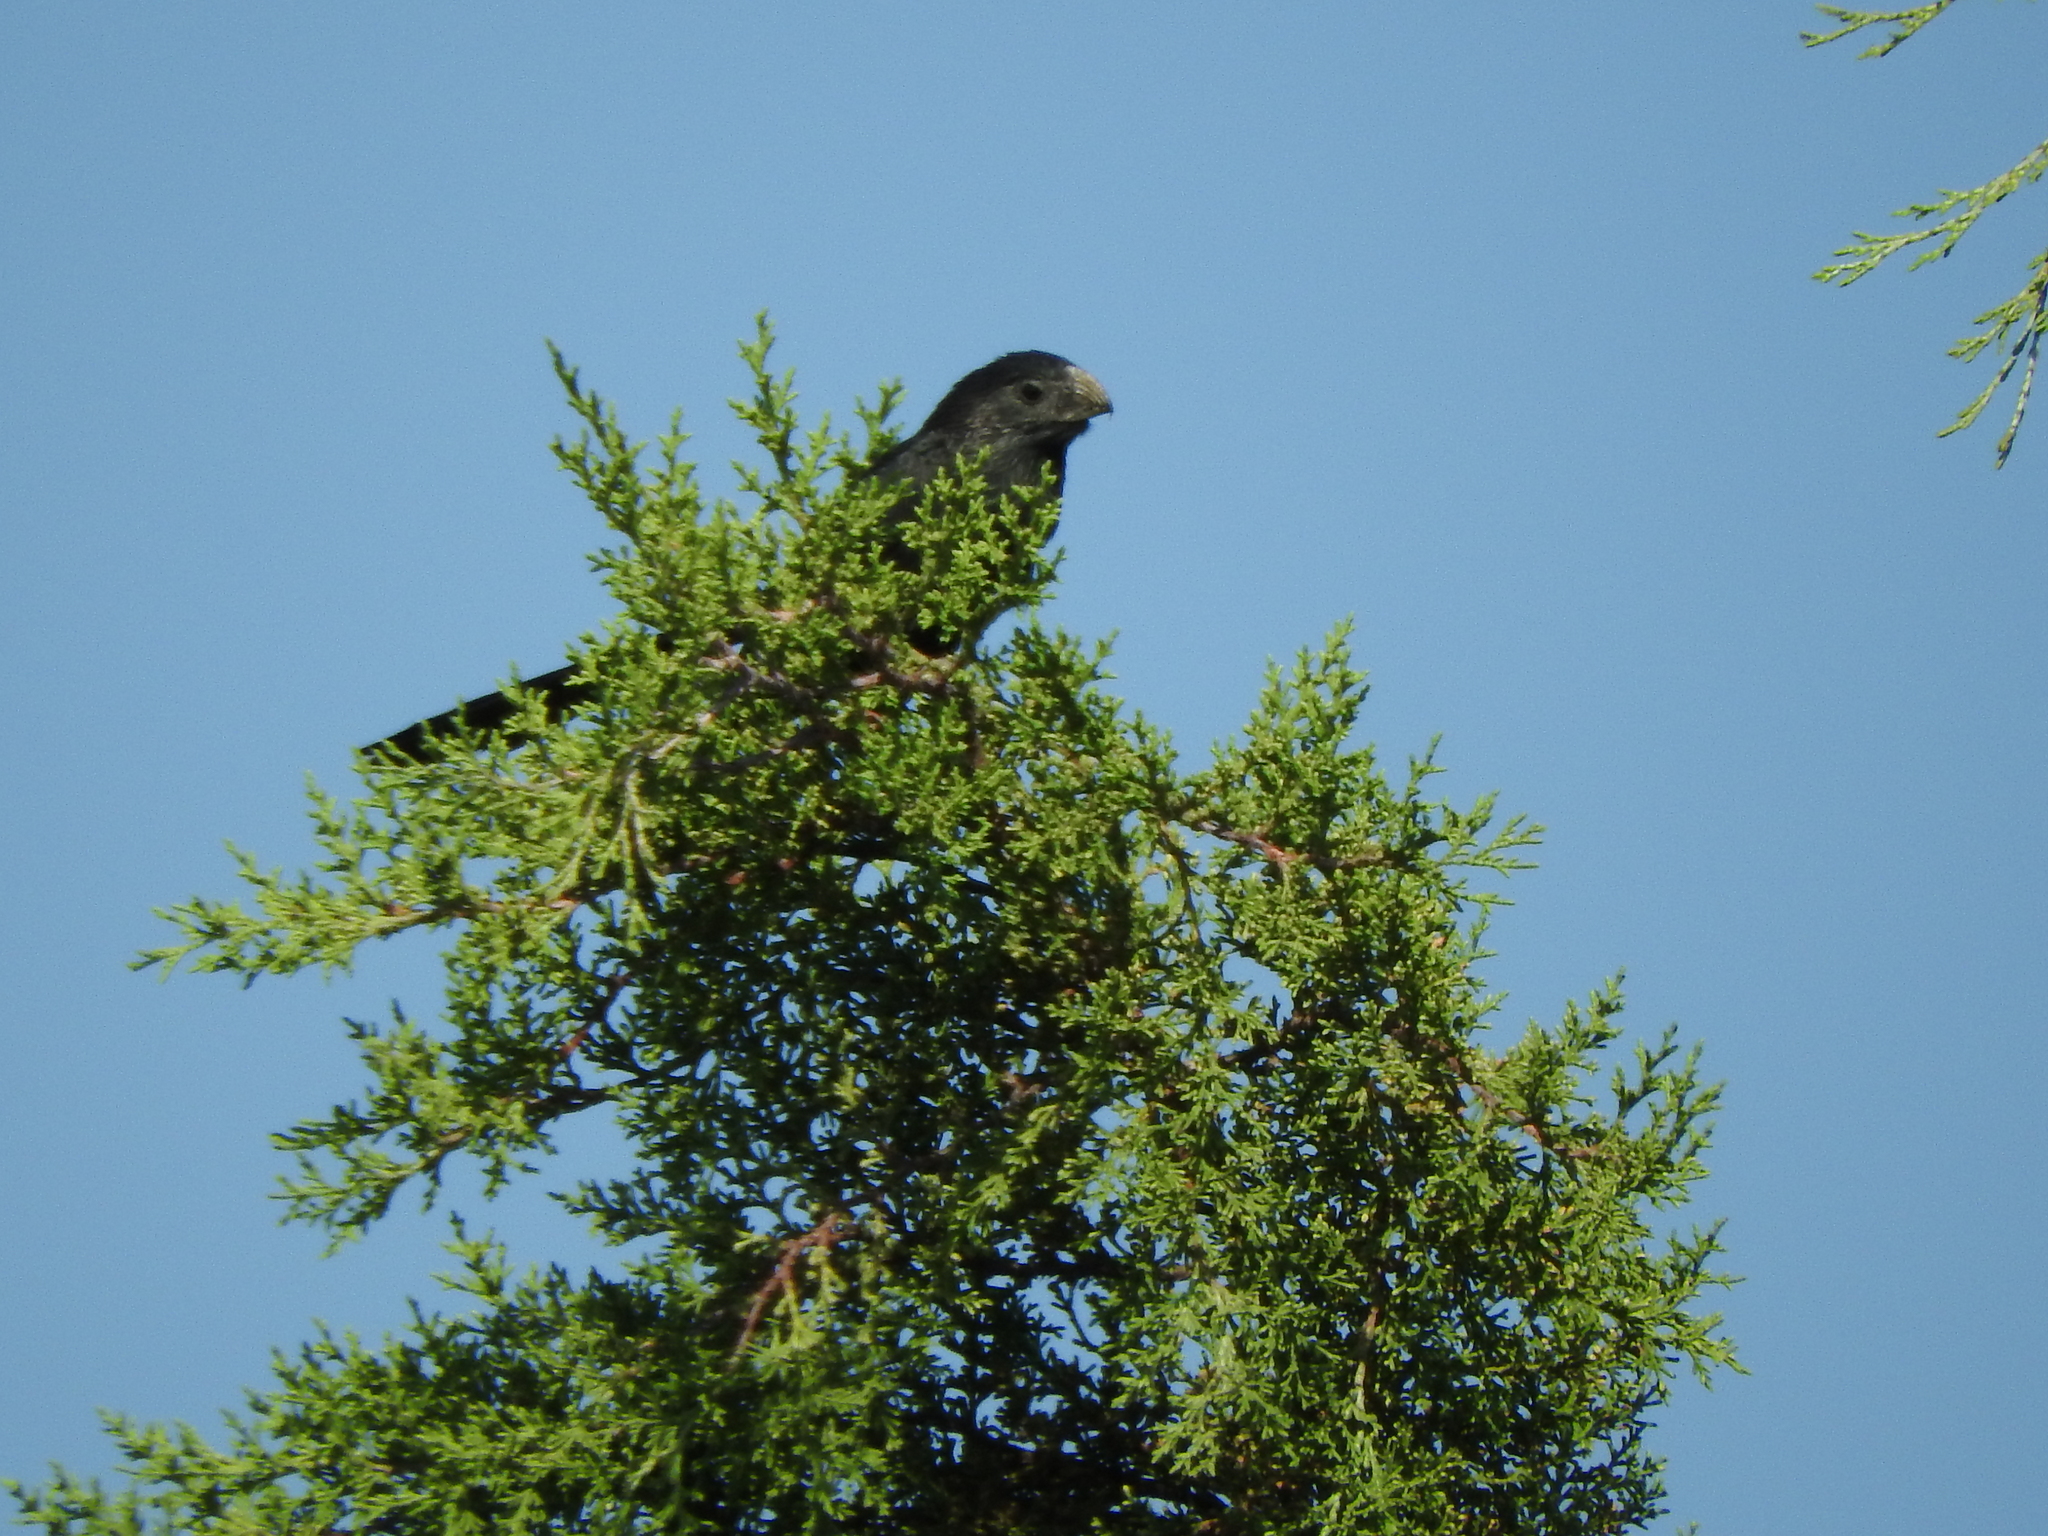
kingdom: Animalia
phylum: Chordata
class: Aves
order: Cuculiformes
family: Cuculidae
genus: Crotophaga
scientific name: Crotophaga sulcirostris
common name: Groove-billed ani
